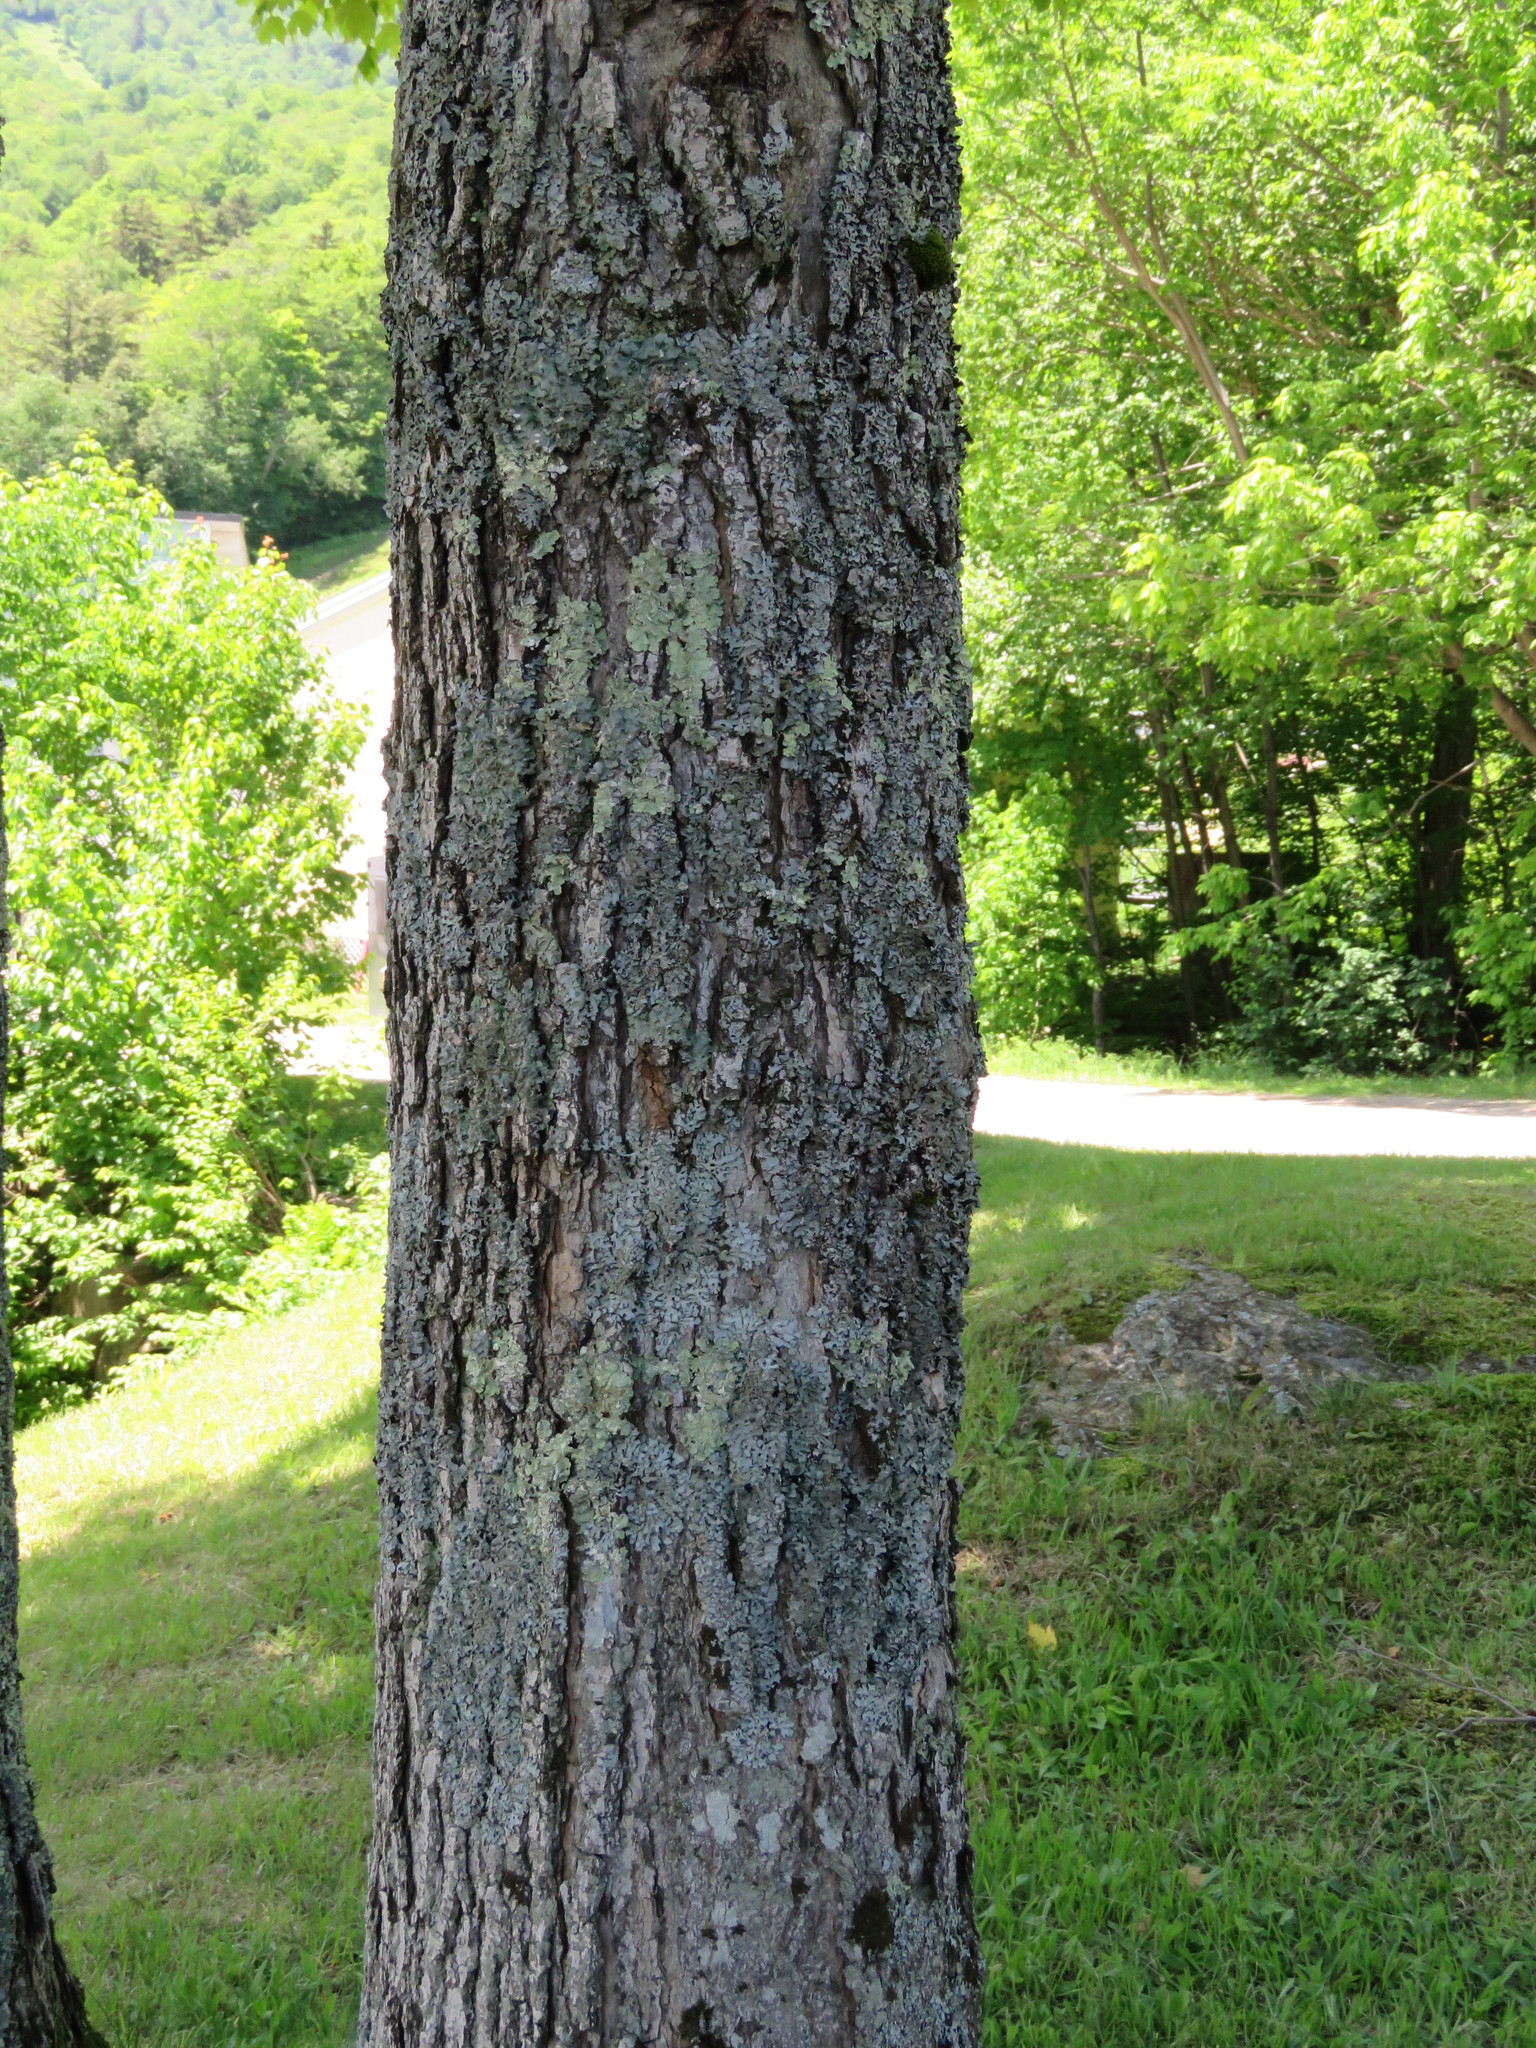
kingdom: Plantae
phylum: Tracheophyta
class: Magnoliopsida
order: Sapindales
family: Sapindaceae
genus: Acer
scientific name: Acer saccharum
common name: Sugar maple
